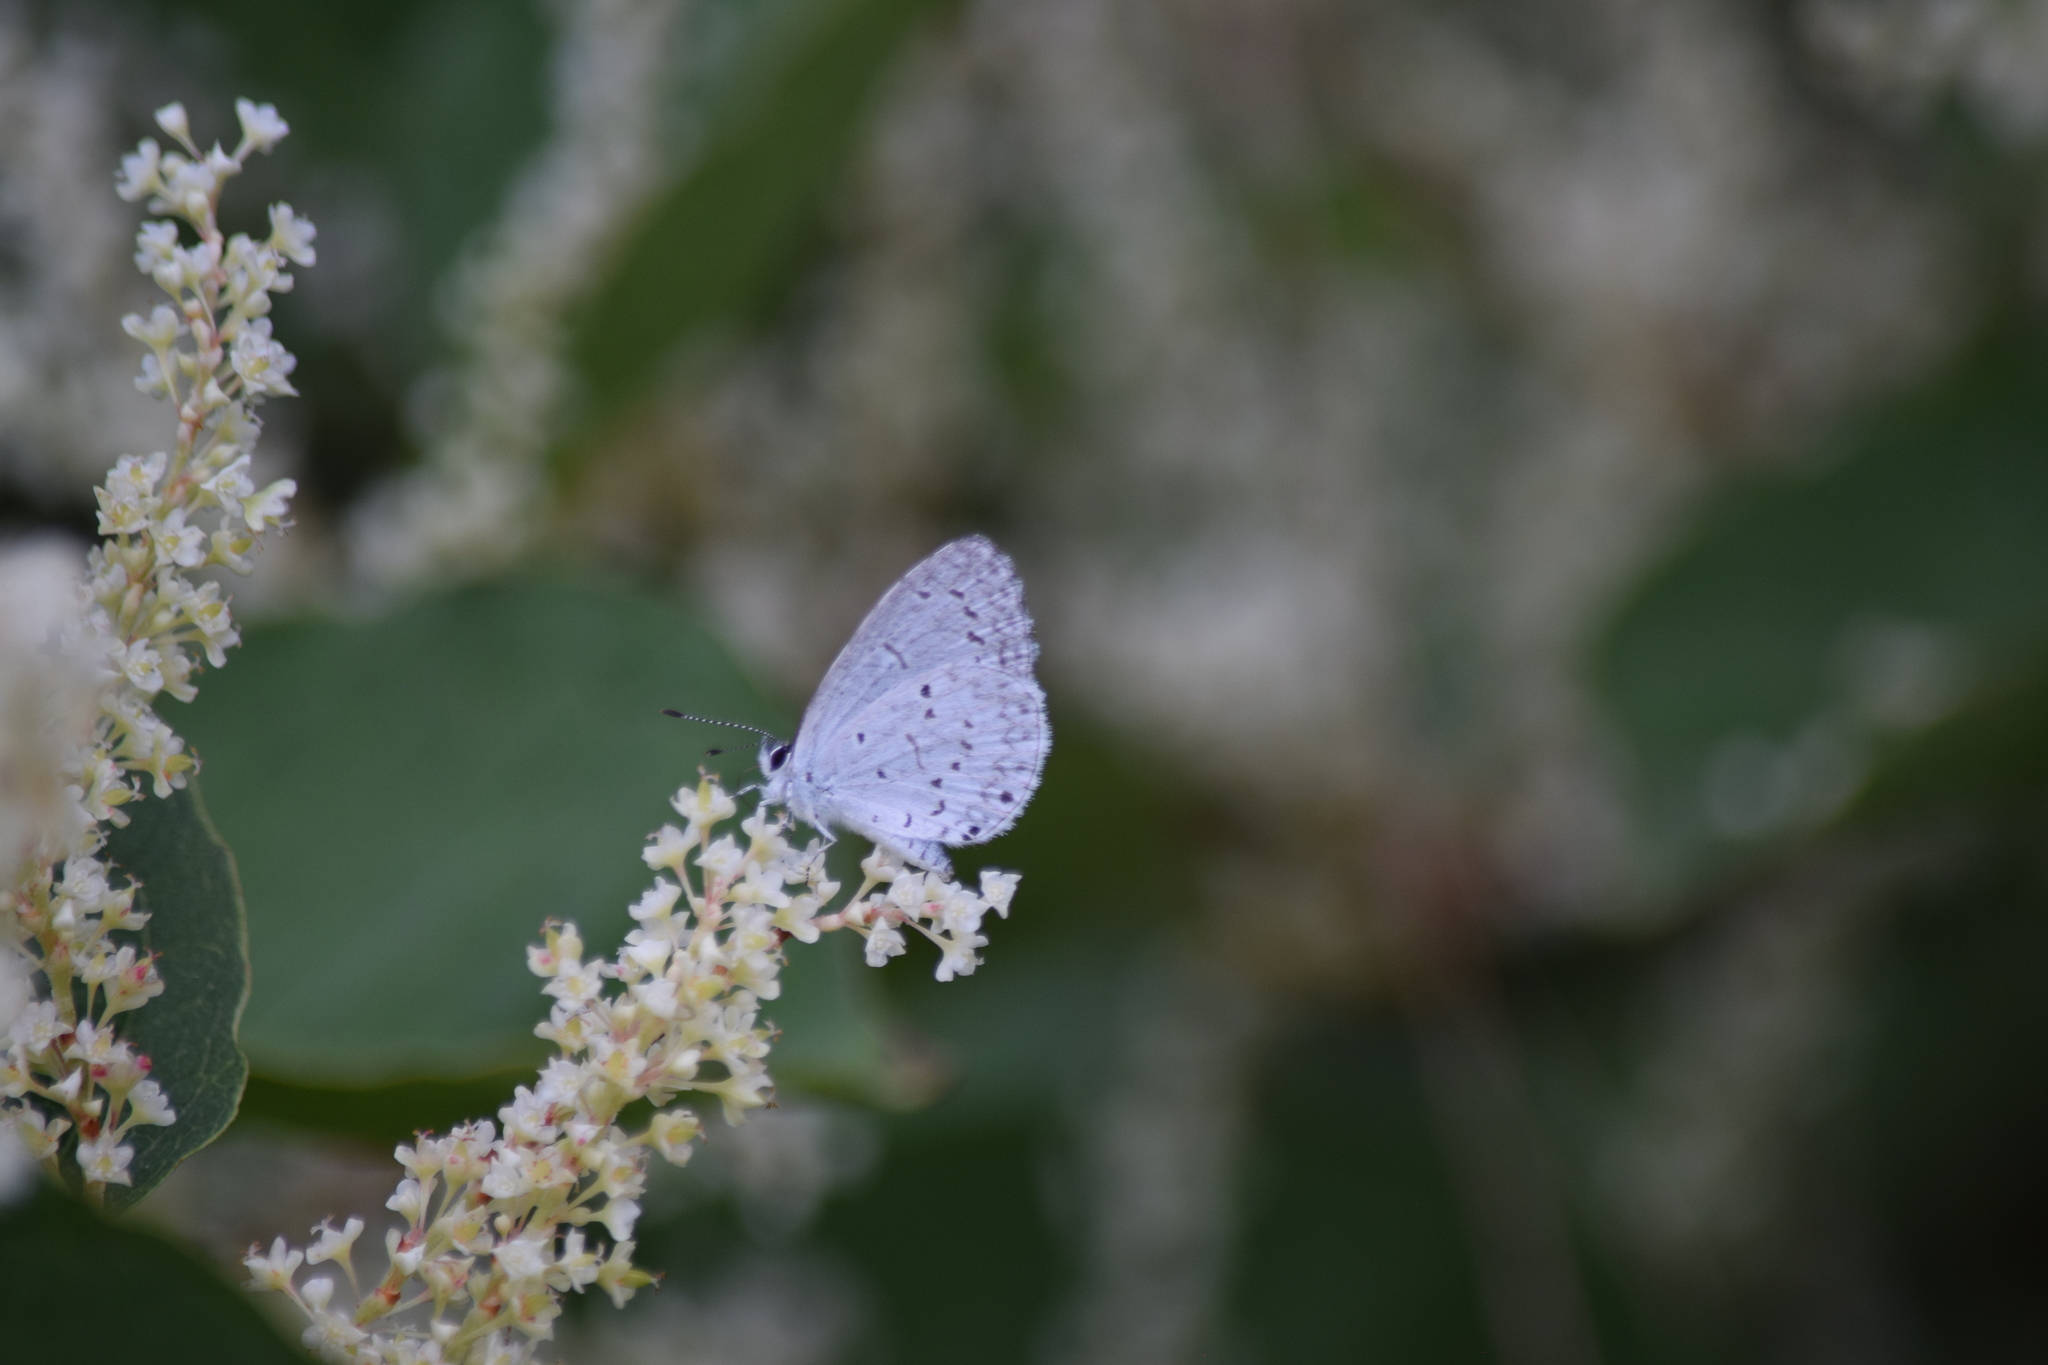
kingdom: Animalia
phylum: Arthropoda
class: Insecta
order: Lepidoptera
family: Lycaenidae
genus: Cyaniris
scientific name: Cyaniris neglecta
